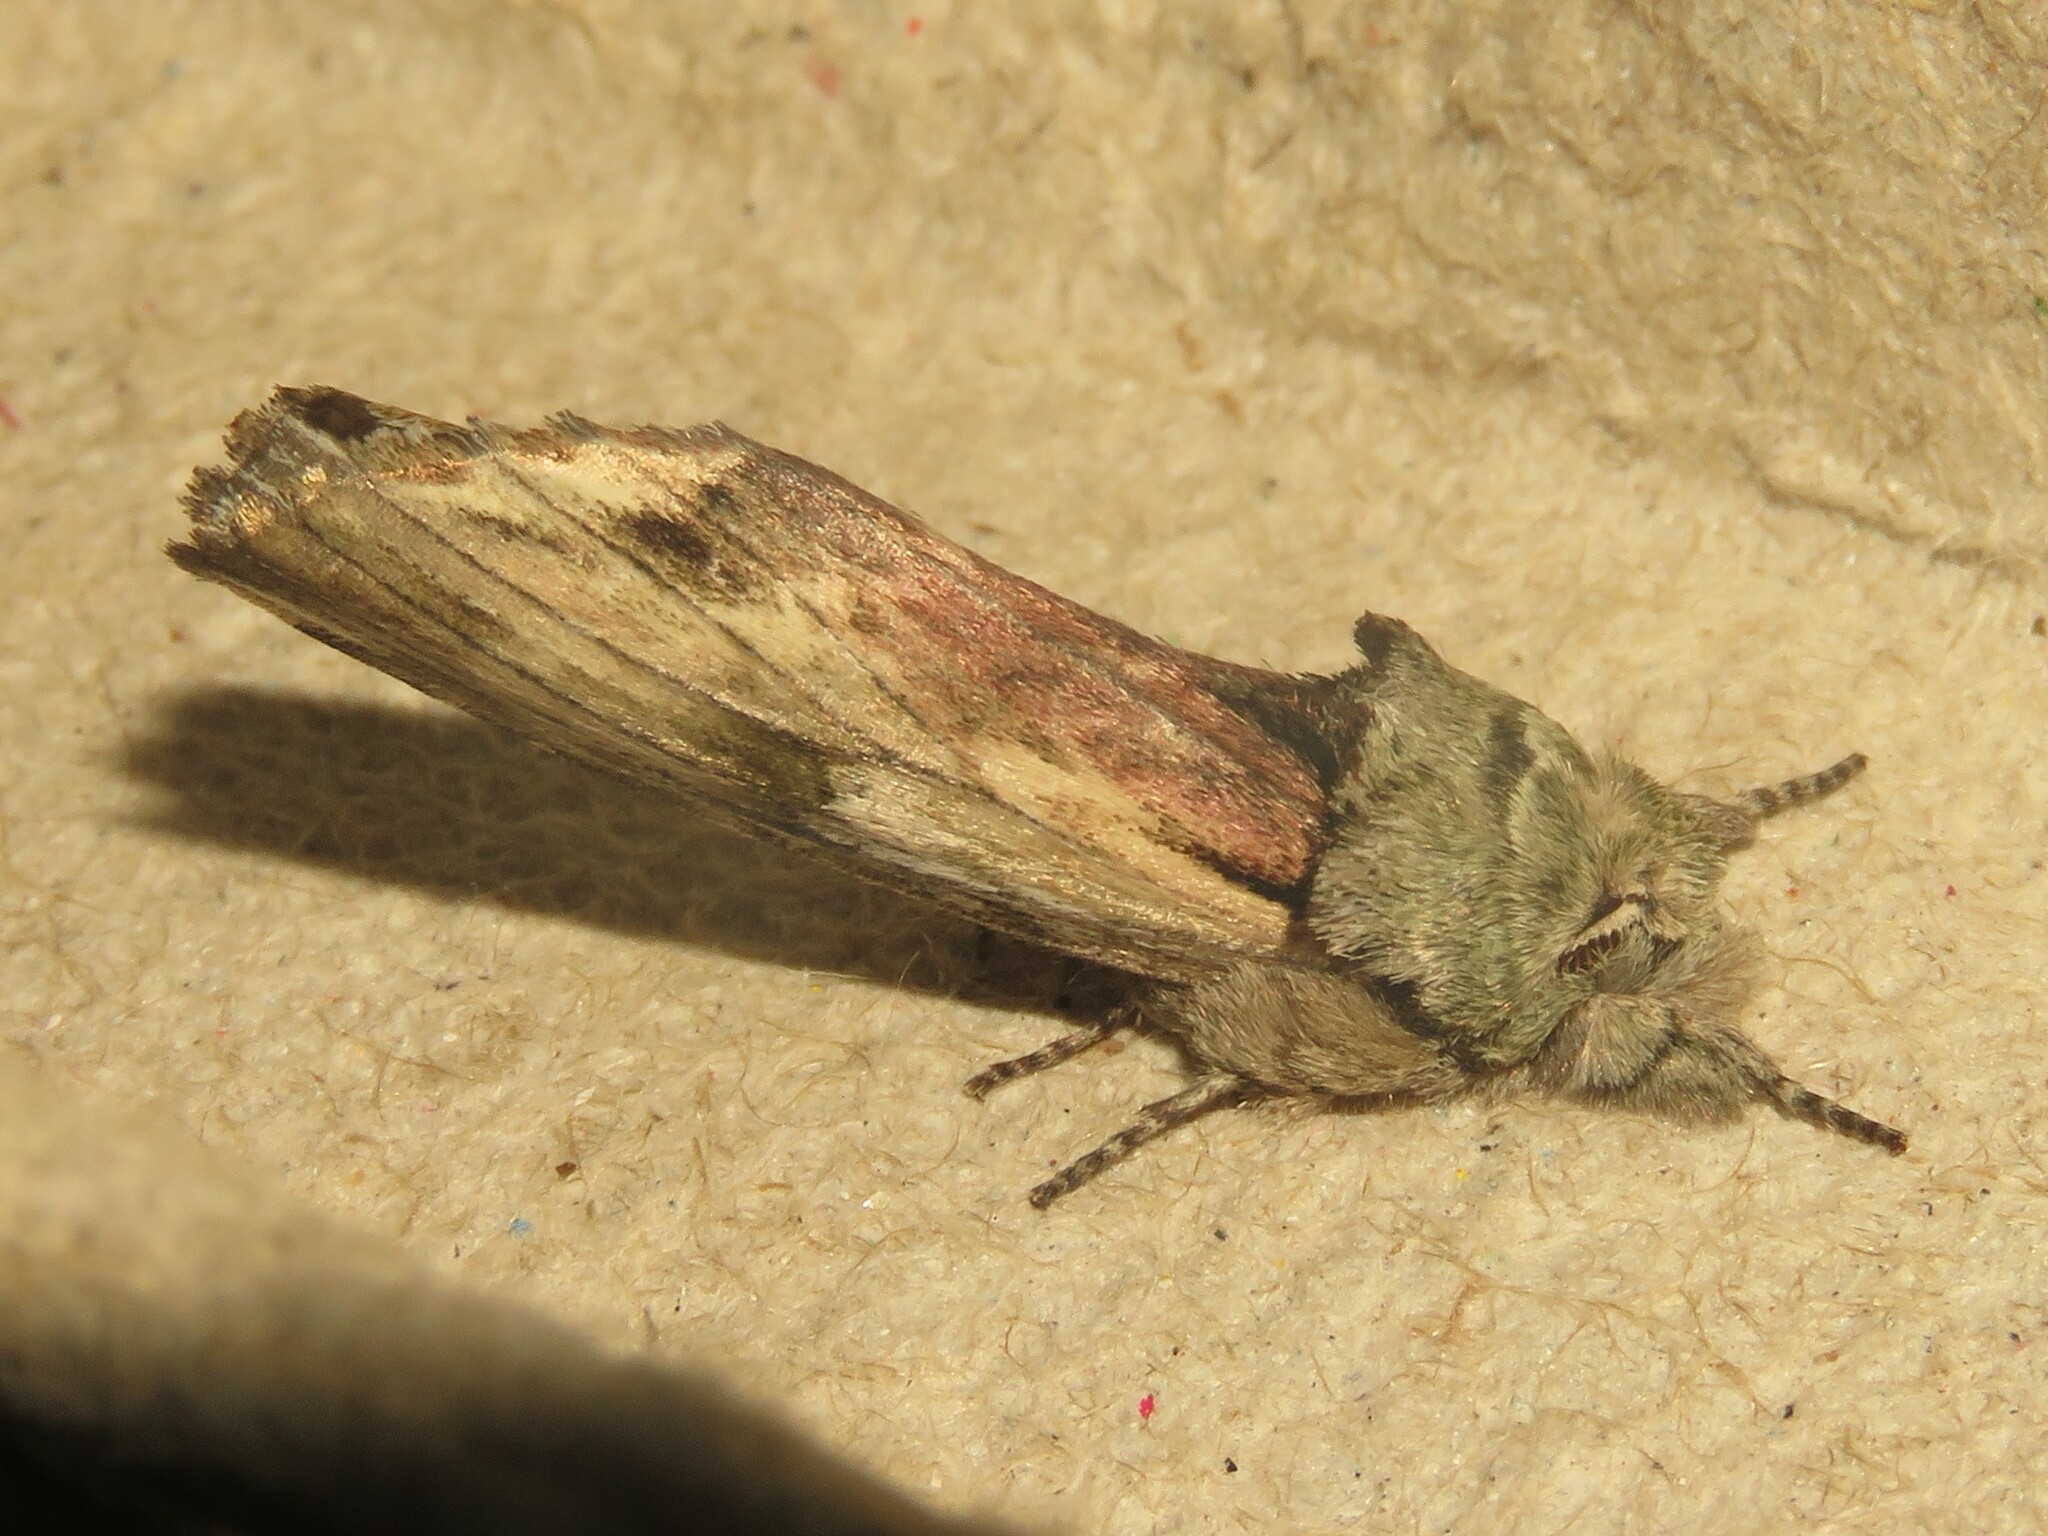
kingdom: Animalia
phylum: Arthropoda
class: Insecta
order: Lepidoptera
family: Notodontidae
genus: Schizura
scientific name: Schizura
